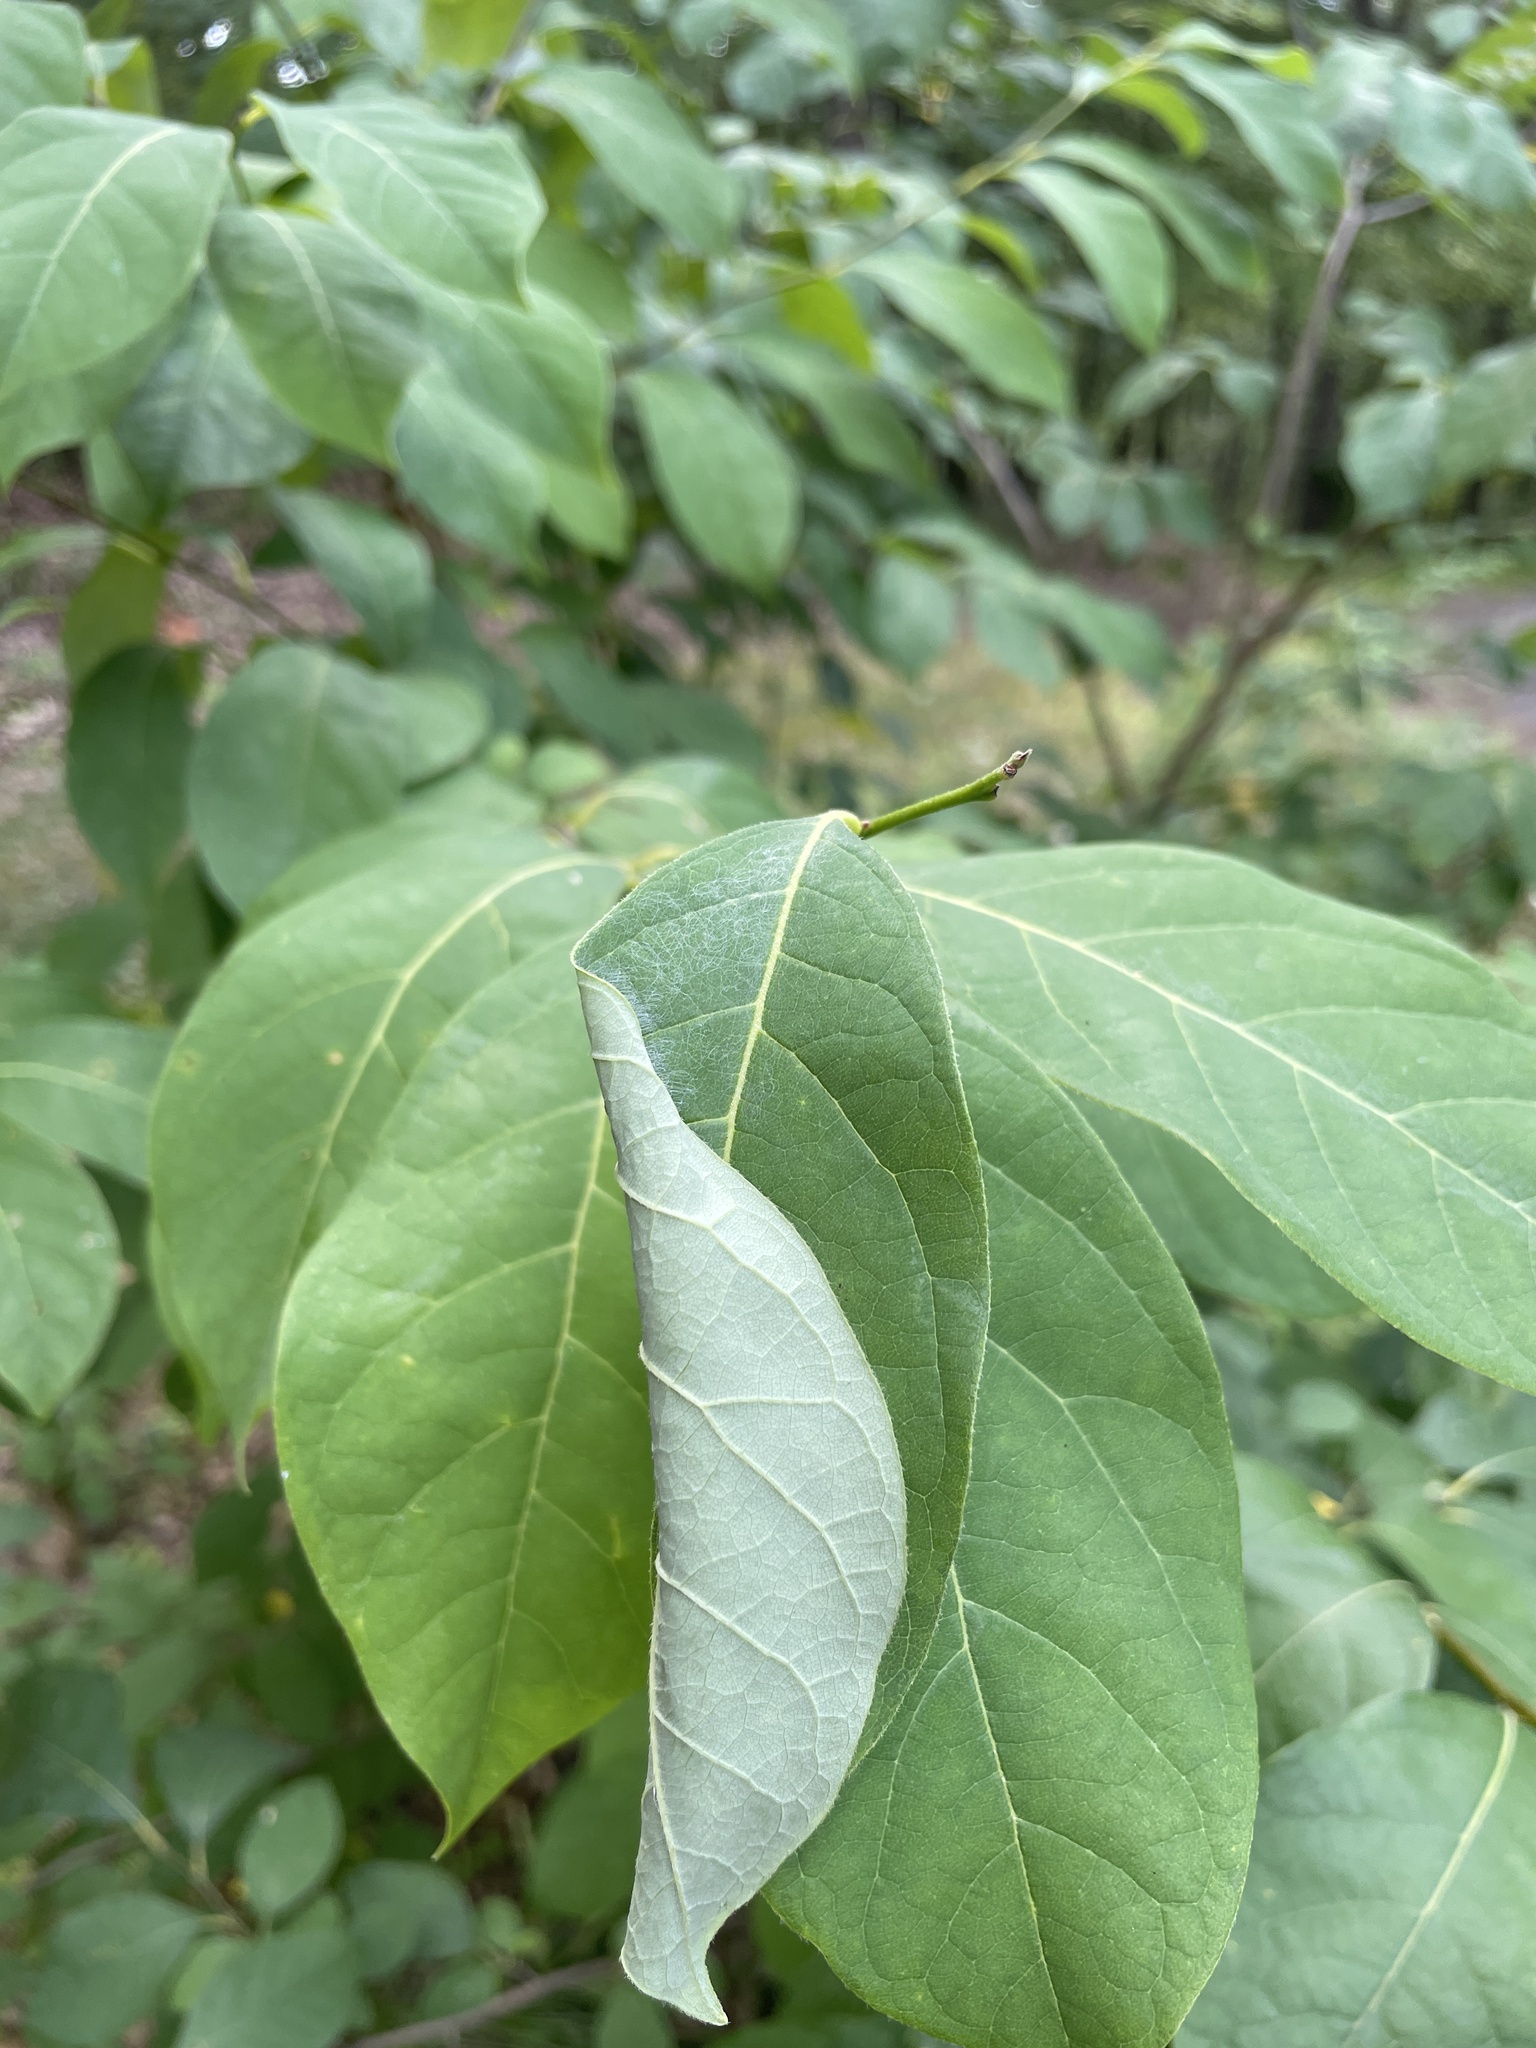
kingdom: Animalia
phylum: Arthropoda
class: Insecta
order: Lepidoptera
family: Papilionidae
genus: Papilio
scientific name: Papilio troilus
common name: Spicebush swallowtail
